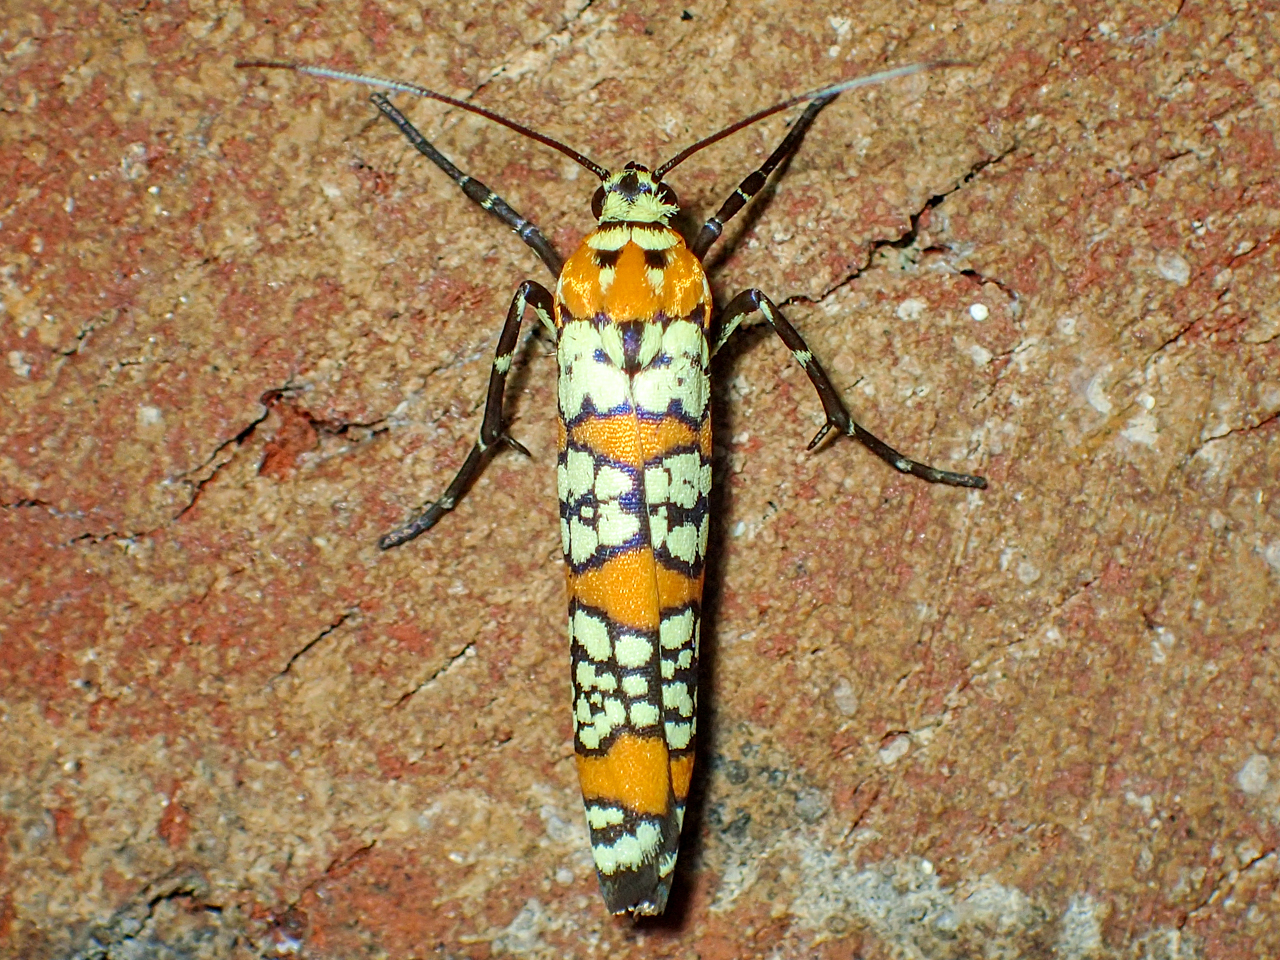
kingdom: Animalia
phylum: Arthropoda
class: Insecta
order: Lepidoptera
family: Attevidae
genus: Atteva
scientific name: Atteva punctella
